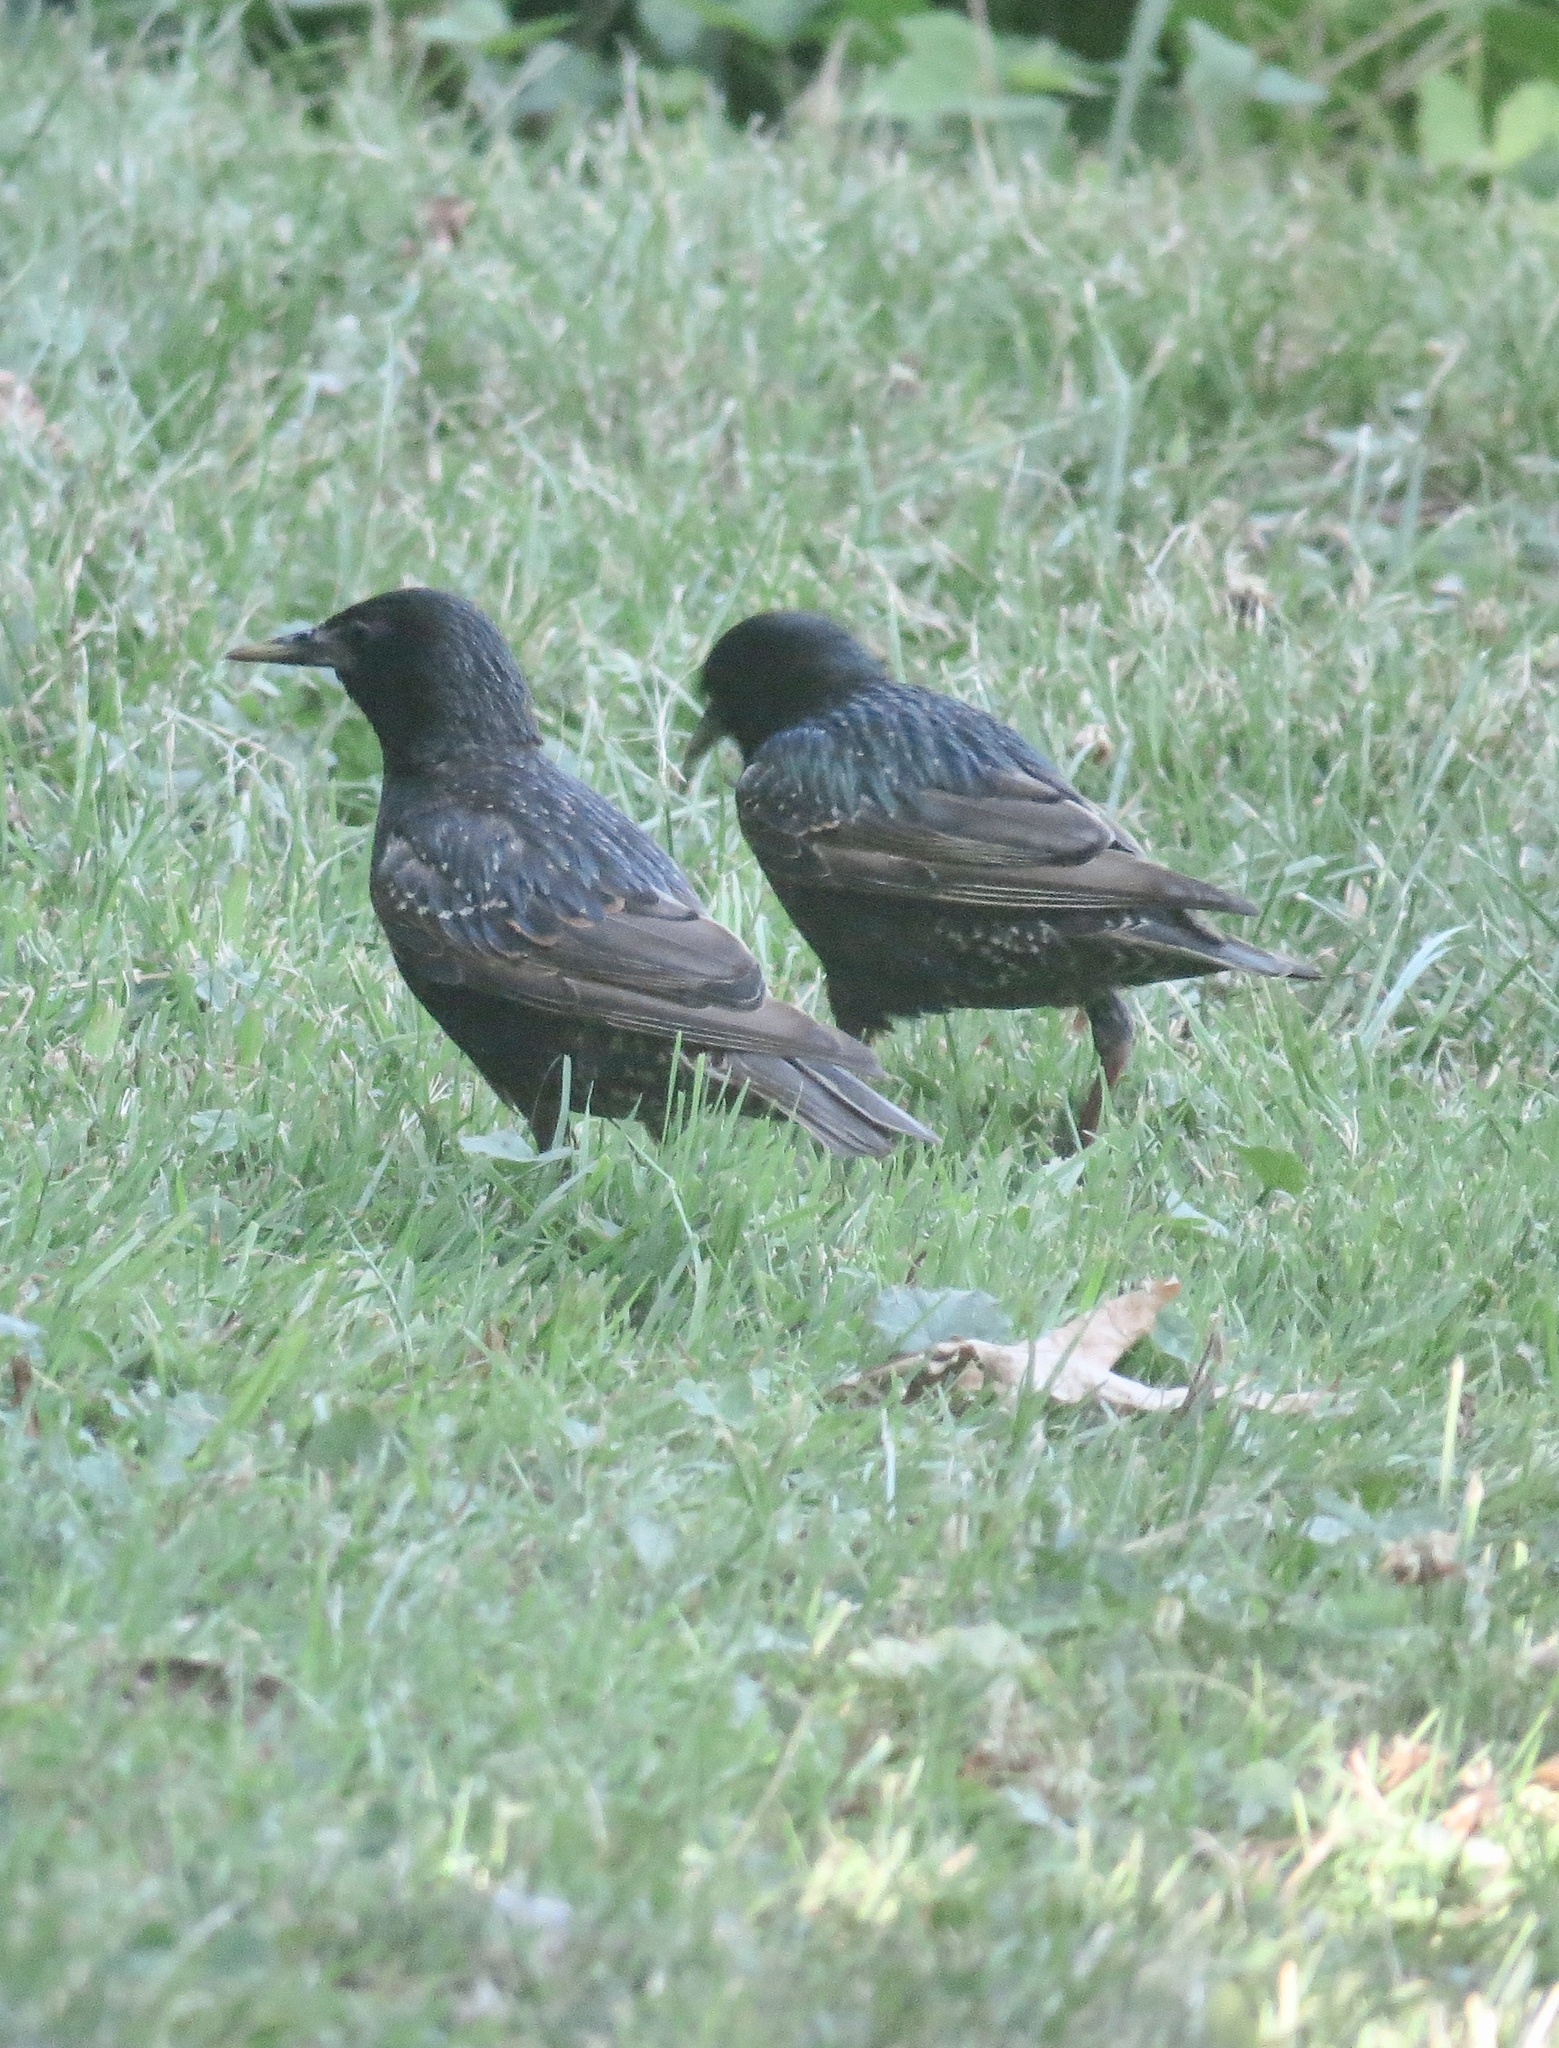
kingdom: Animalia
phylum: Chordata
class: Aves
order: Passeriformes
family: Sturnidae
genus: Sturnus
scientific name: Sturnus vulgaris
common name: Common starling
